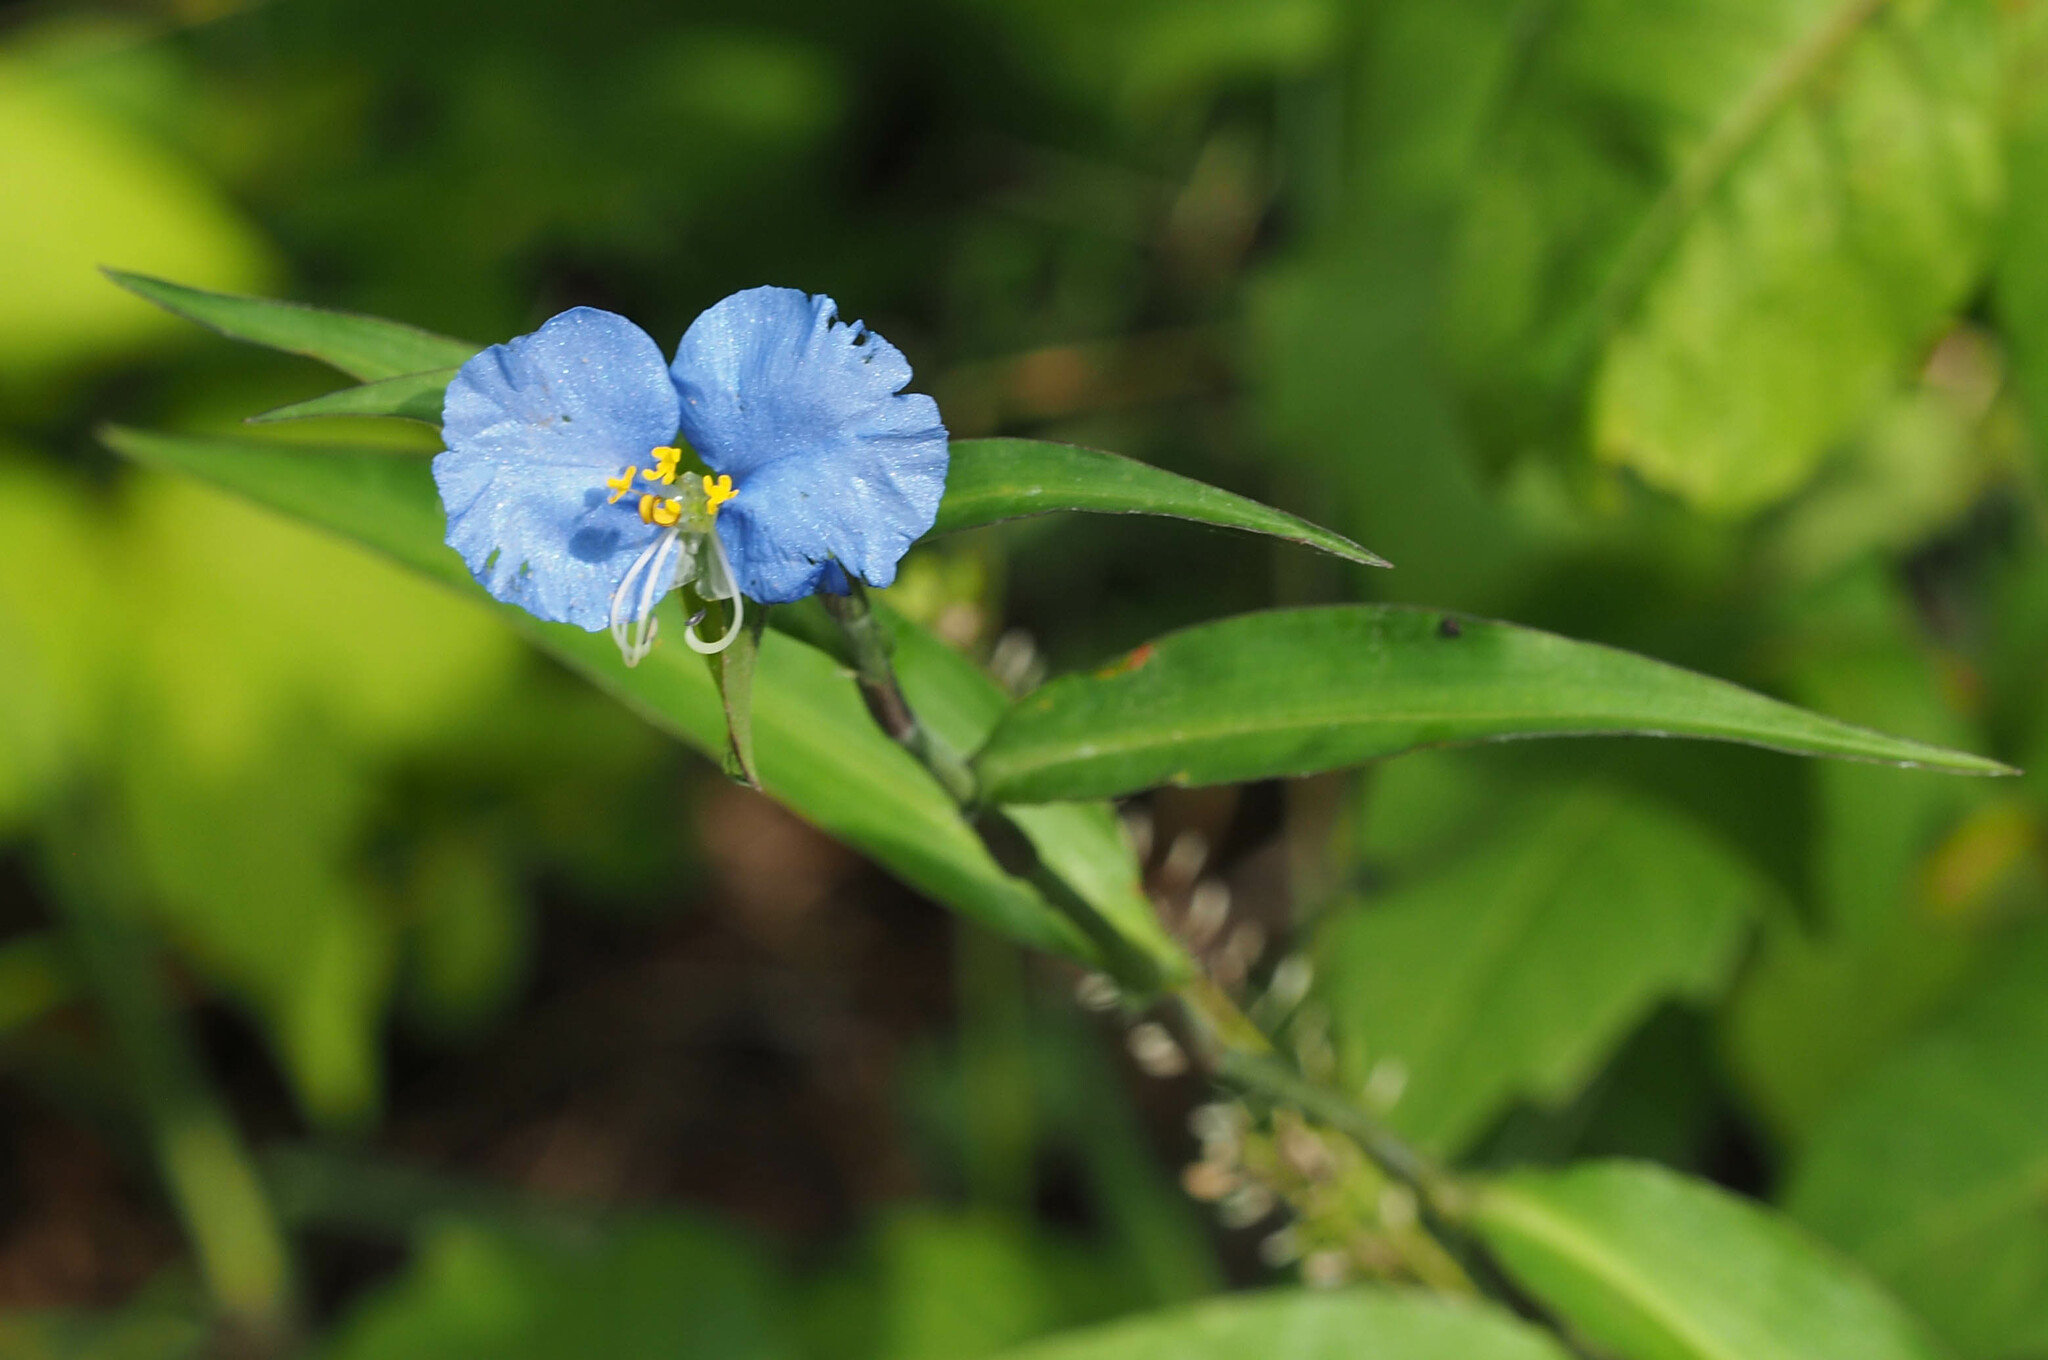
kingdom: Plantae
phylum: Tracheophyta
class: Liliopsida
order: Commelinales
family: Commelinaceae
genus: Commelina
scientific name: Commelina erecta
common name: Blousel blommetjie
